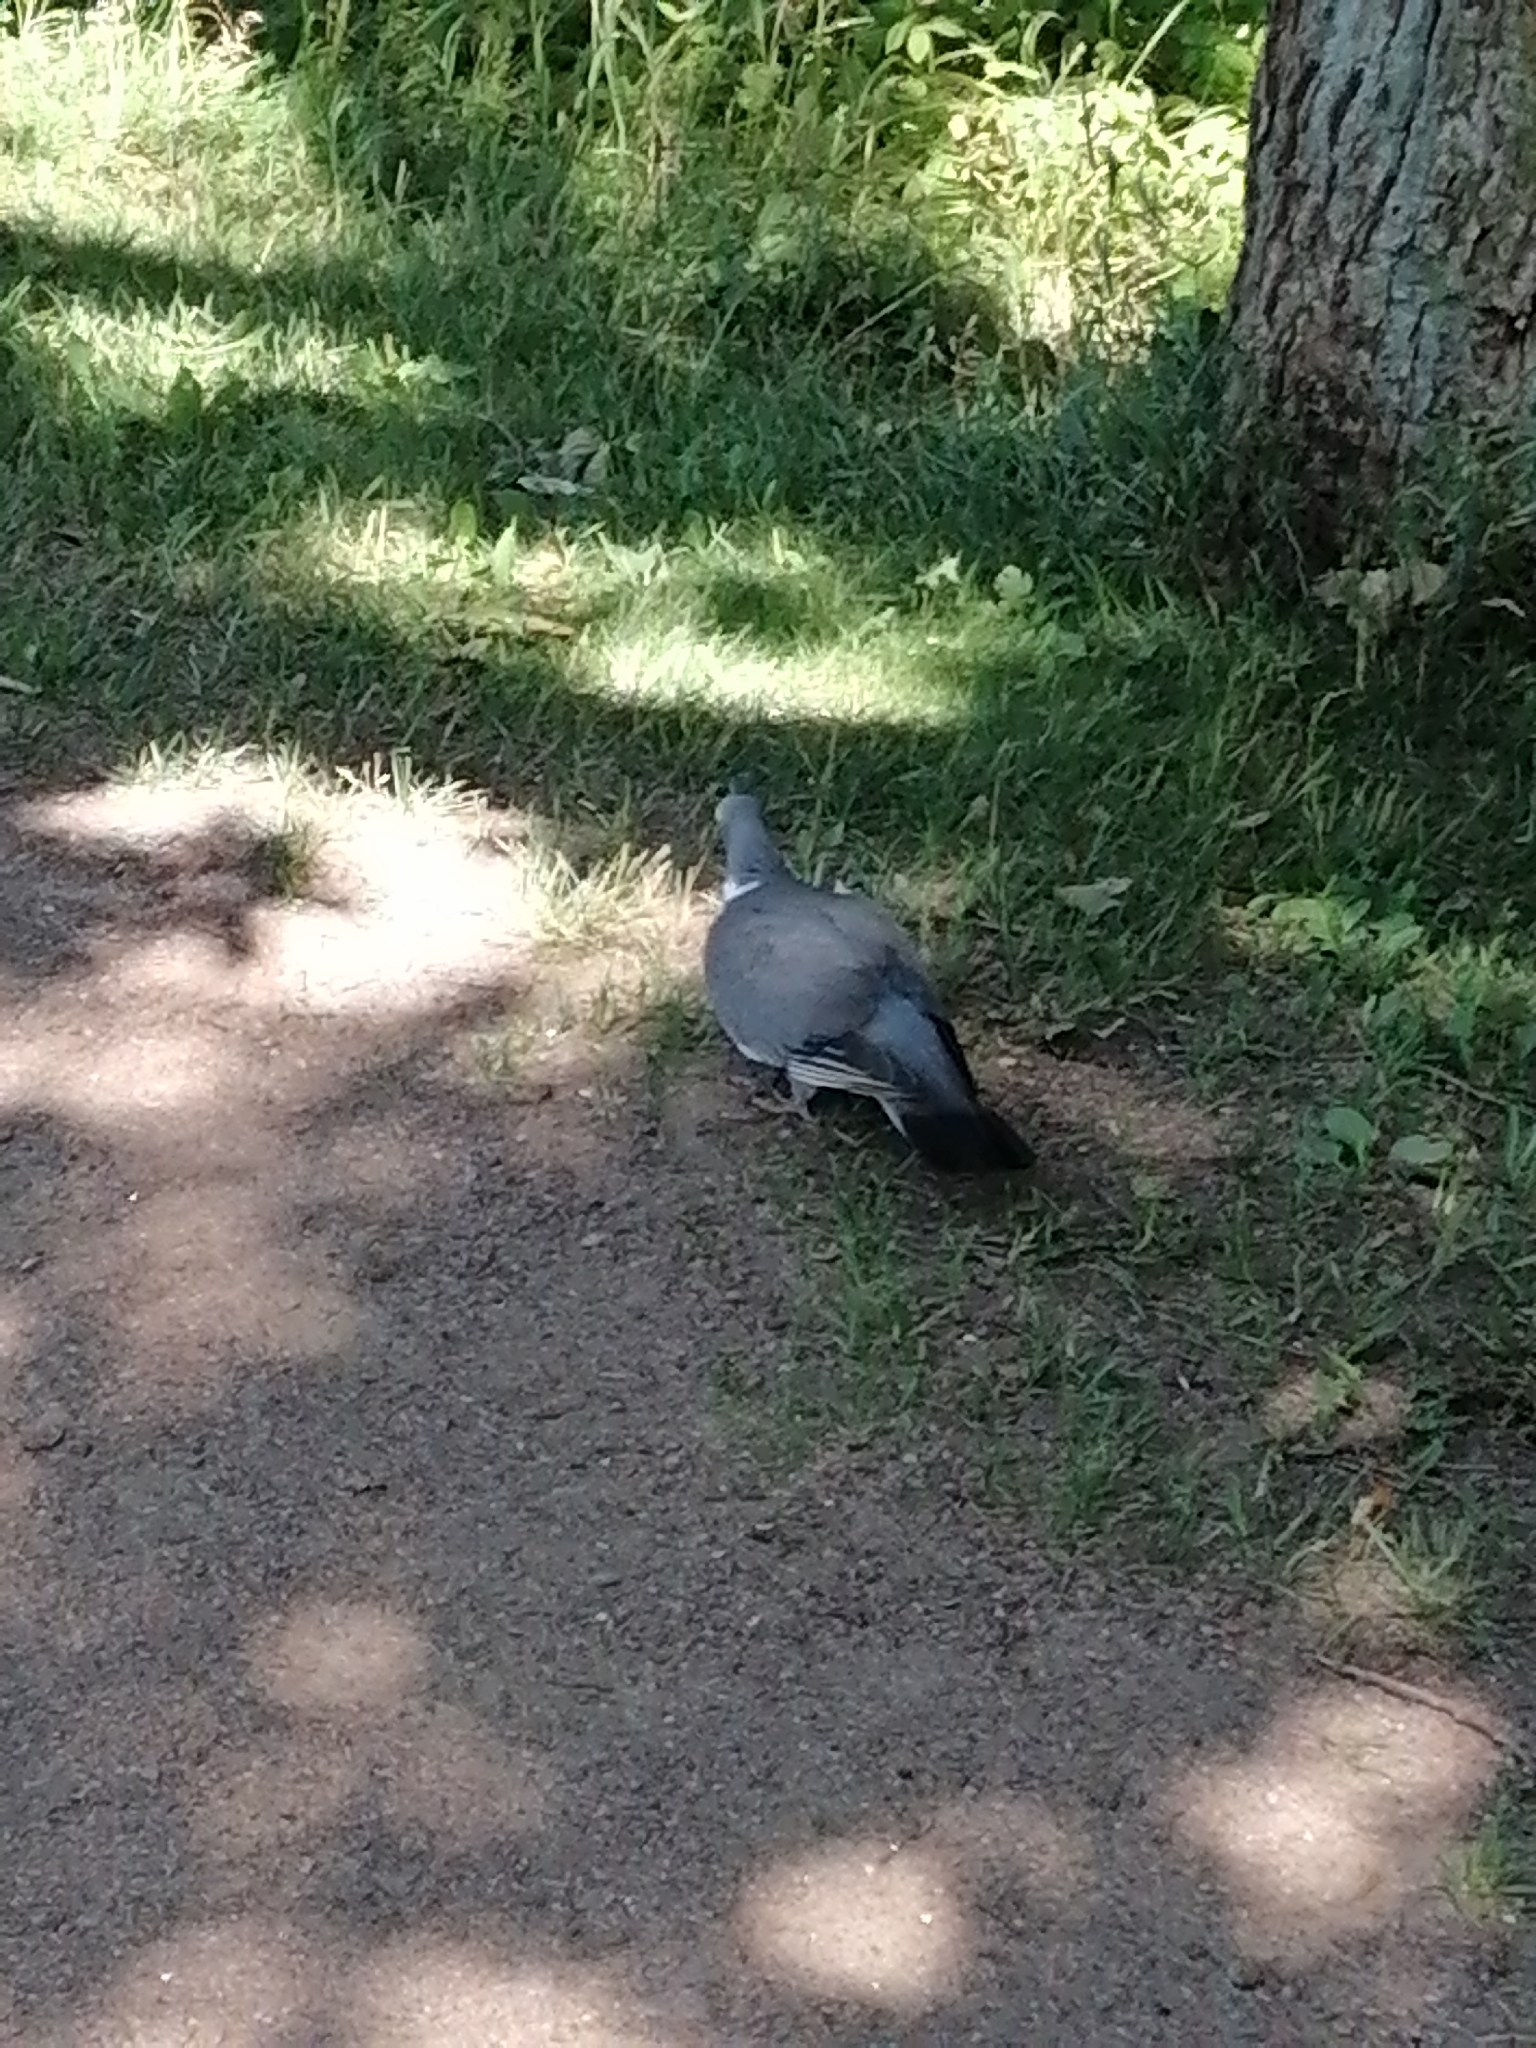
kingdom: Animalia
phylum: Chordata
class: Aves
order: Columbiformes
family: Columbidae
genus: Columba
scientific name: Columba palumbus
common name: Common wood pigeon
